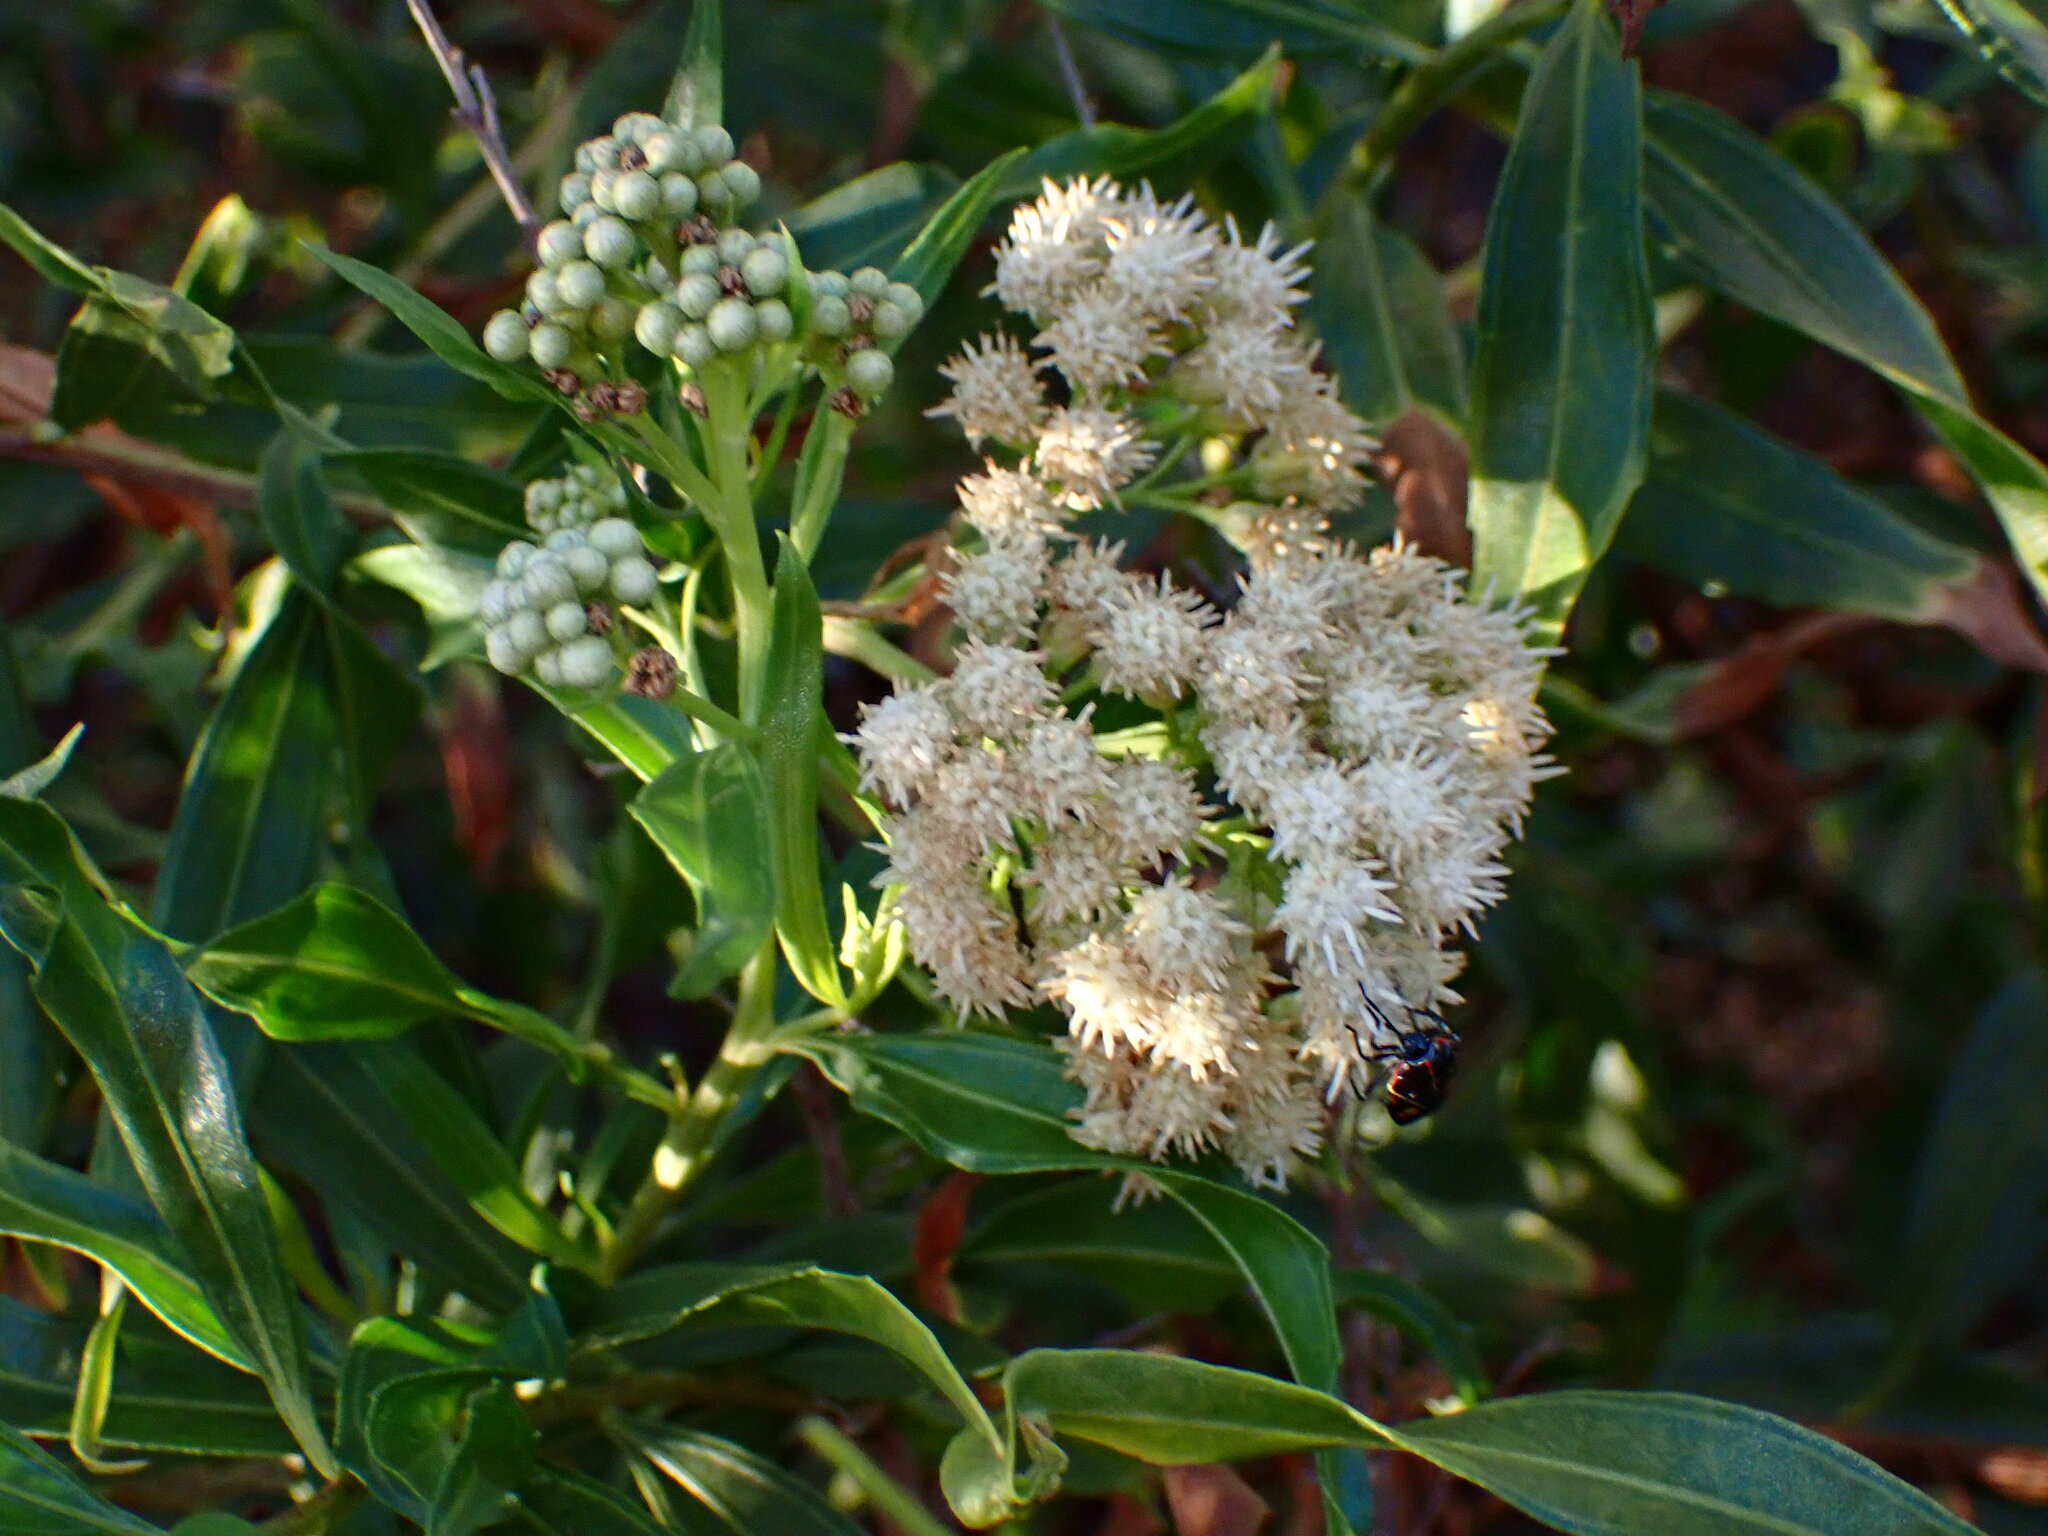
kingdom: Plantae
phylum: Tracheophyta
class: Magnoliopsida
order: Asterales
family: Asteraceae
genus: Baccharis
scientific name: Baccharis salicifolia
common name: Sticky baccharis
